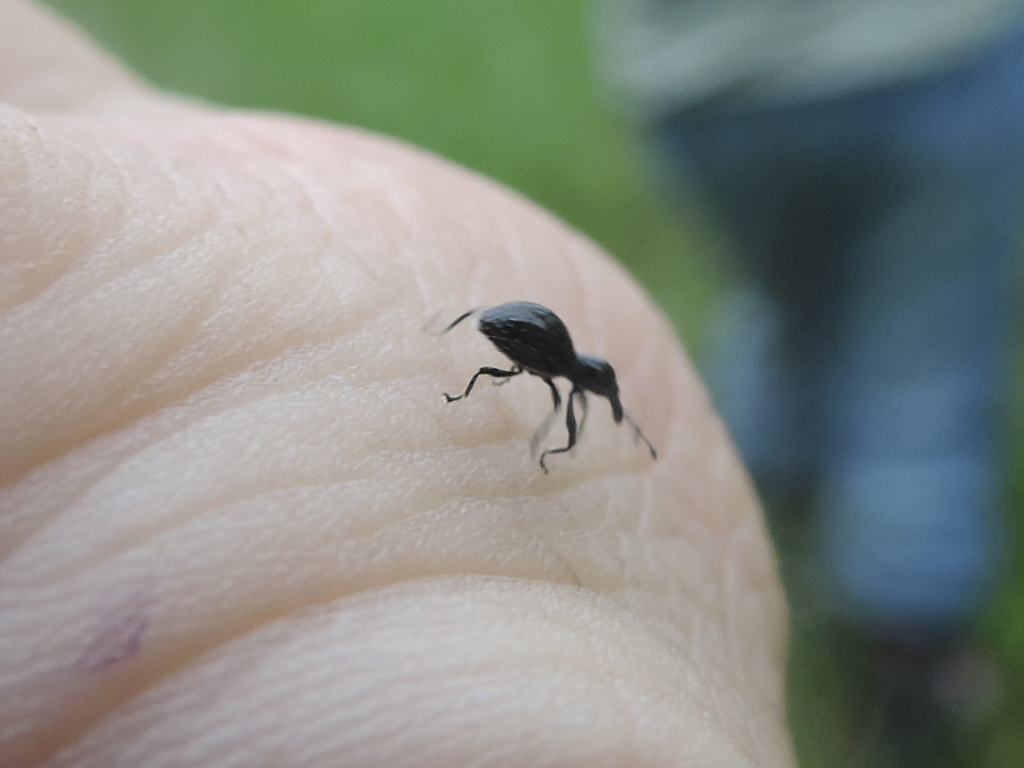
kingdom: Animalia
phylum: Arthropoda
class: Insecta
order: Coleoptera
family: Curculionidae
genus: Otidocephalus
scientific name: Otidocephalus chevrolatii
